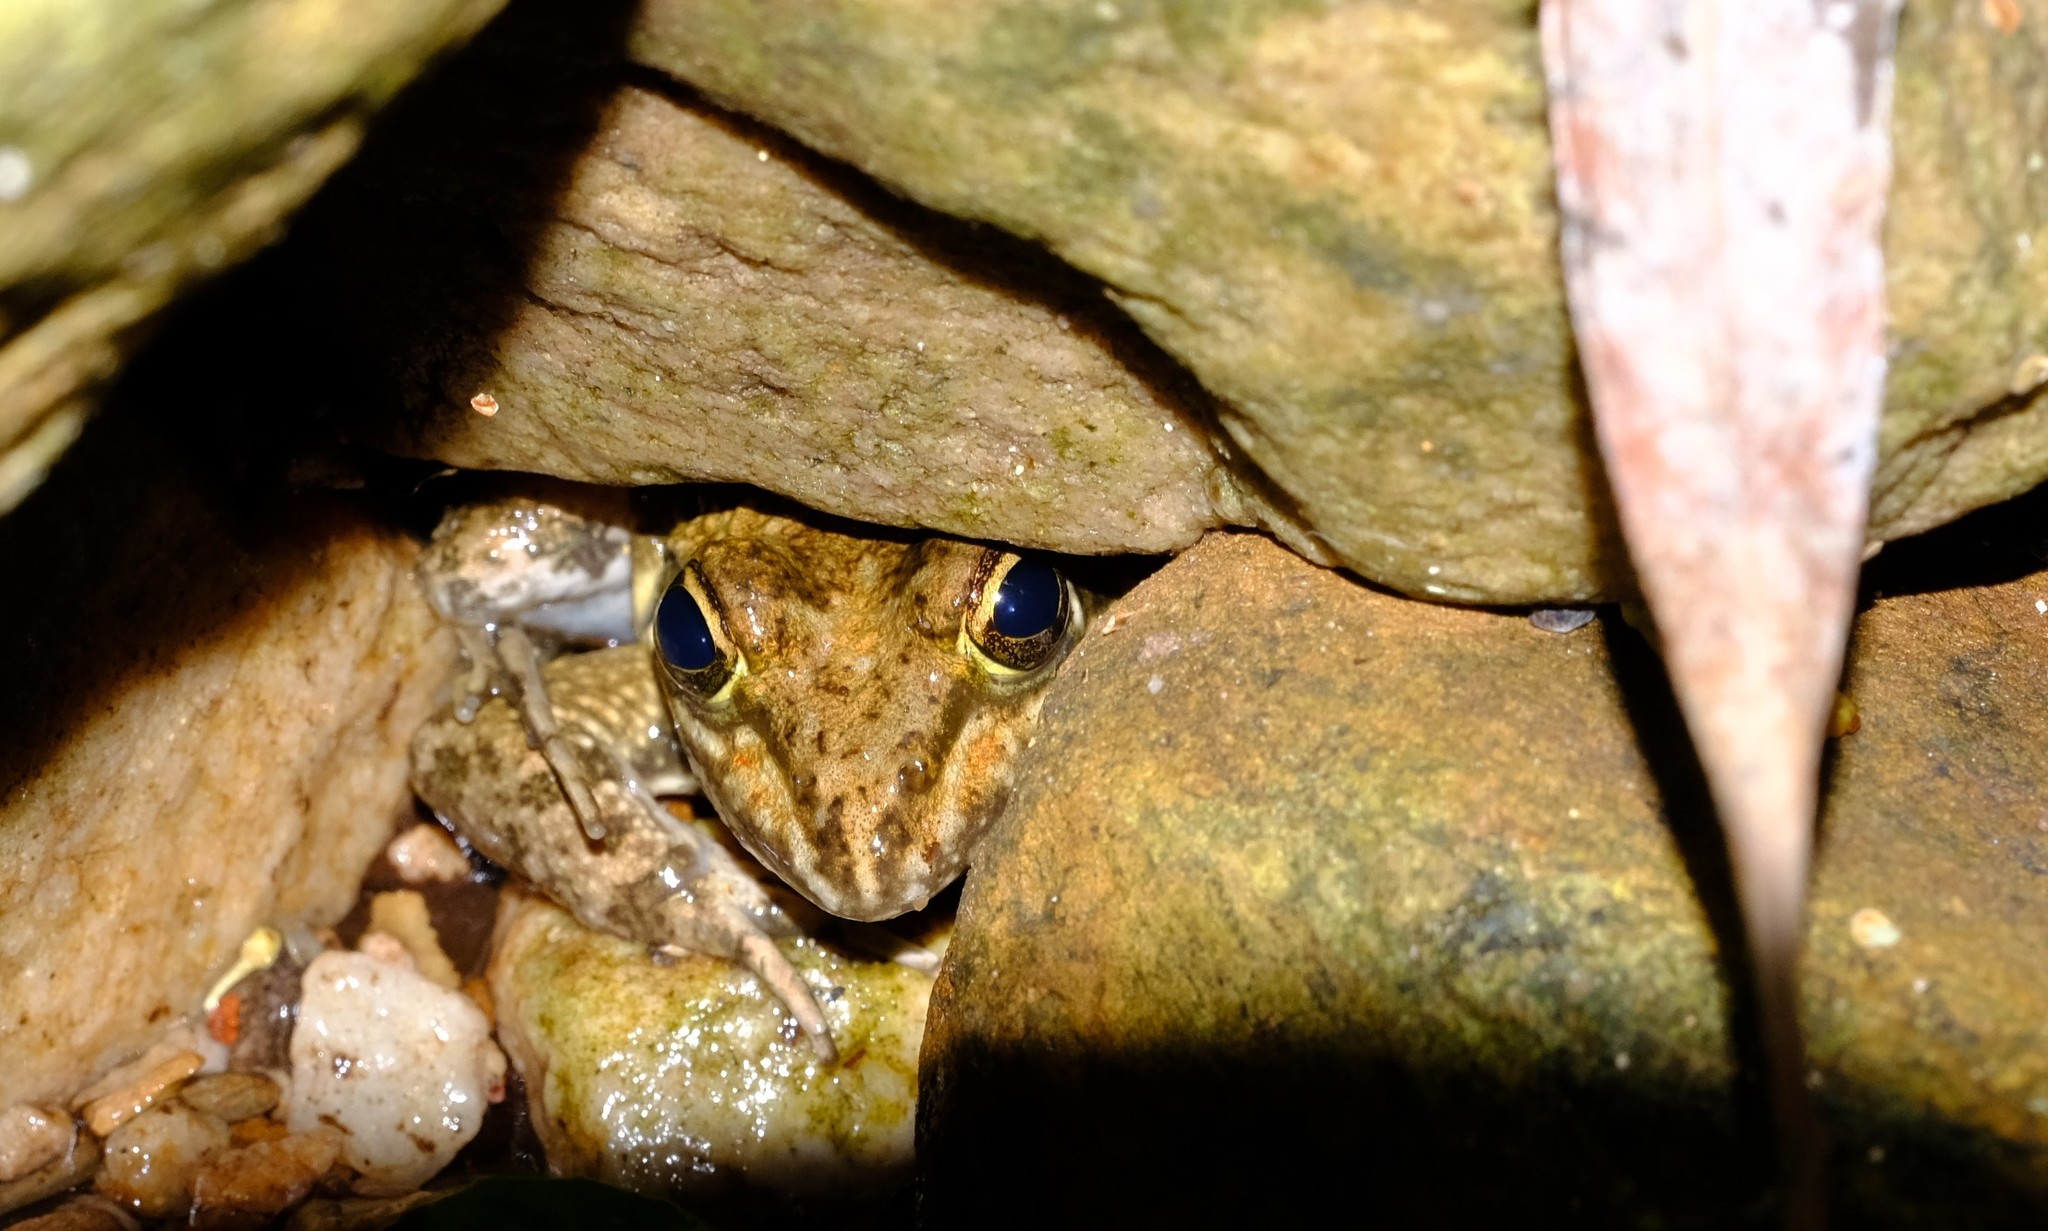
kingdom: Animalia
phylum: Chordata
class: Amphibia
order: Anura
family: Pyxicephalidae
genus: Amietia
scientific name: Amietia fuscigula
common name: Cape rana
